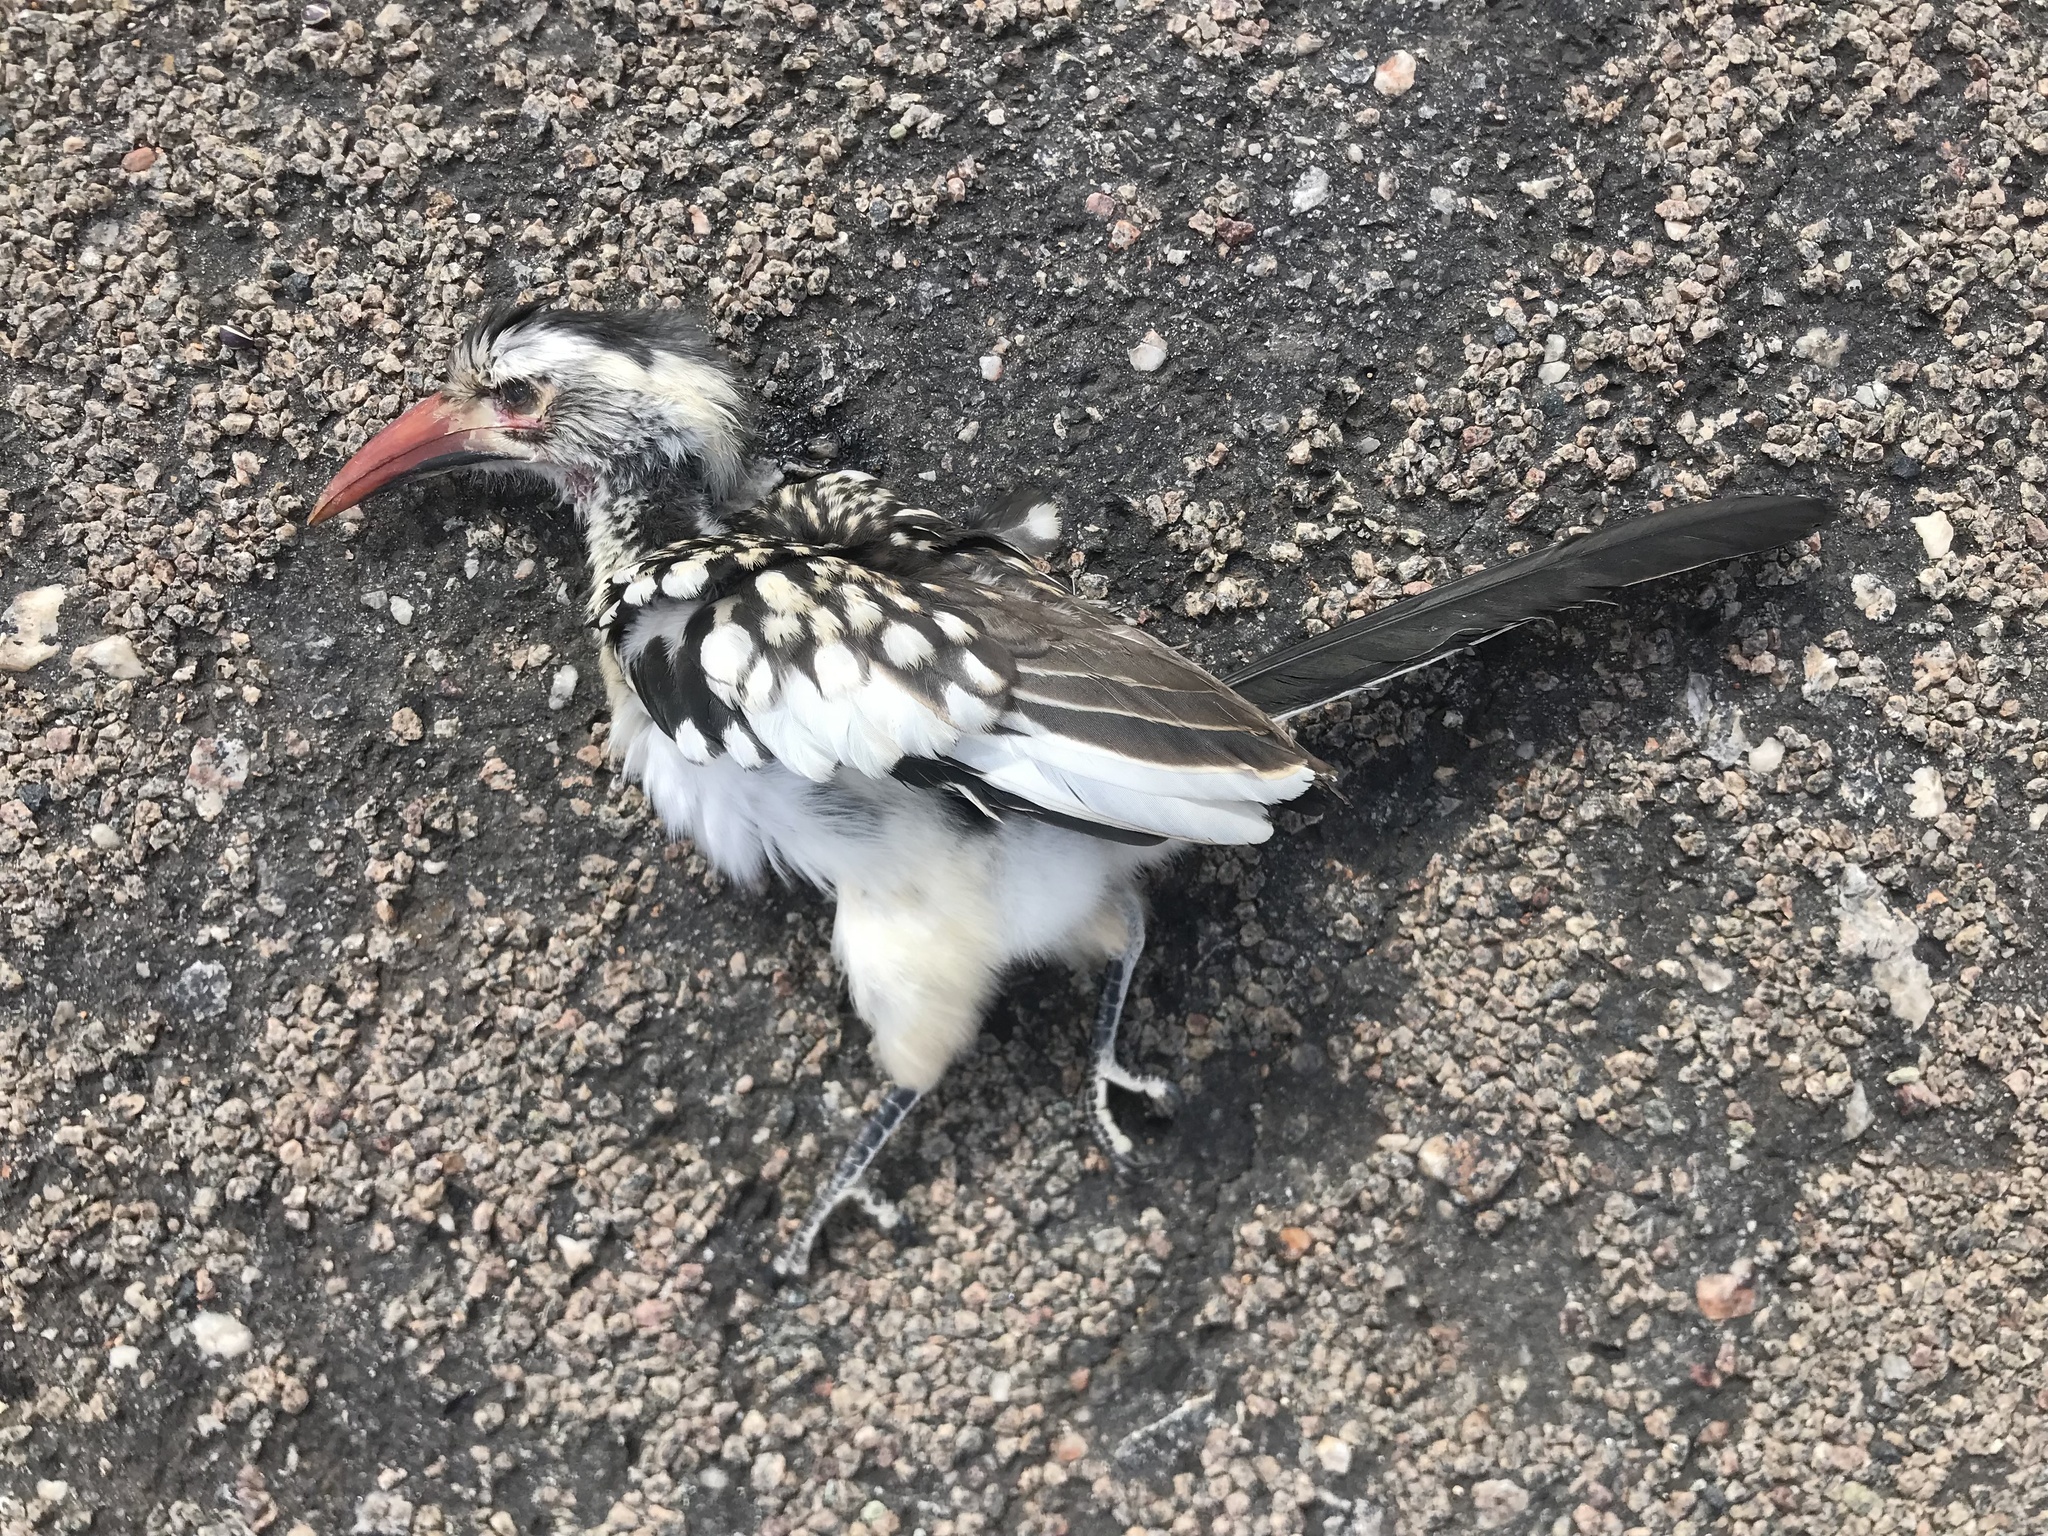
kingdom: Animalia
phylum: Chordata
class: Aves
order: Bucerotiformes
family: Bucerotidae
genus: Tockus
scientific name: Tockus rufirostris
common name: Southern red-billed hornbill
